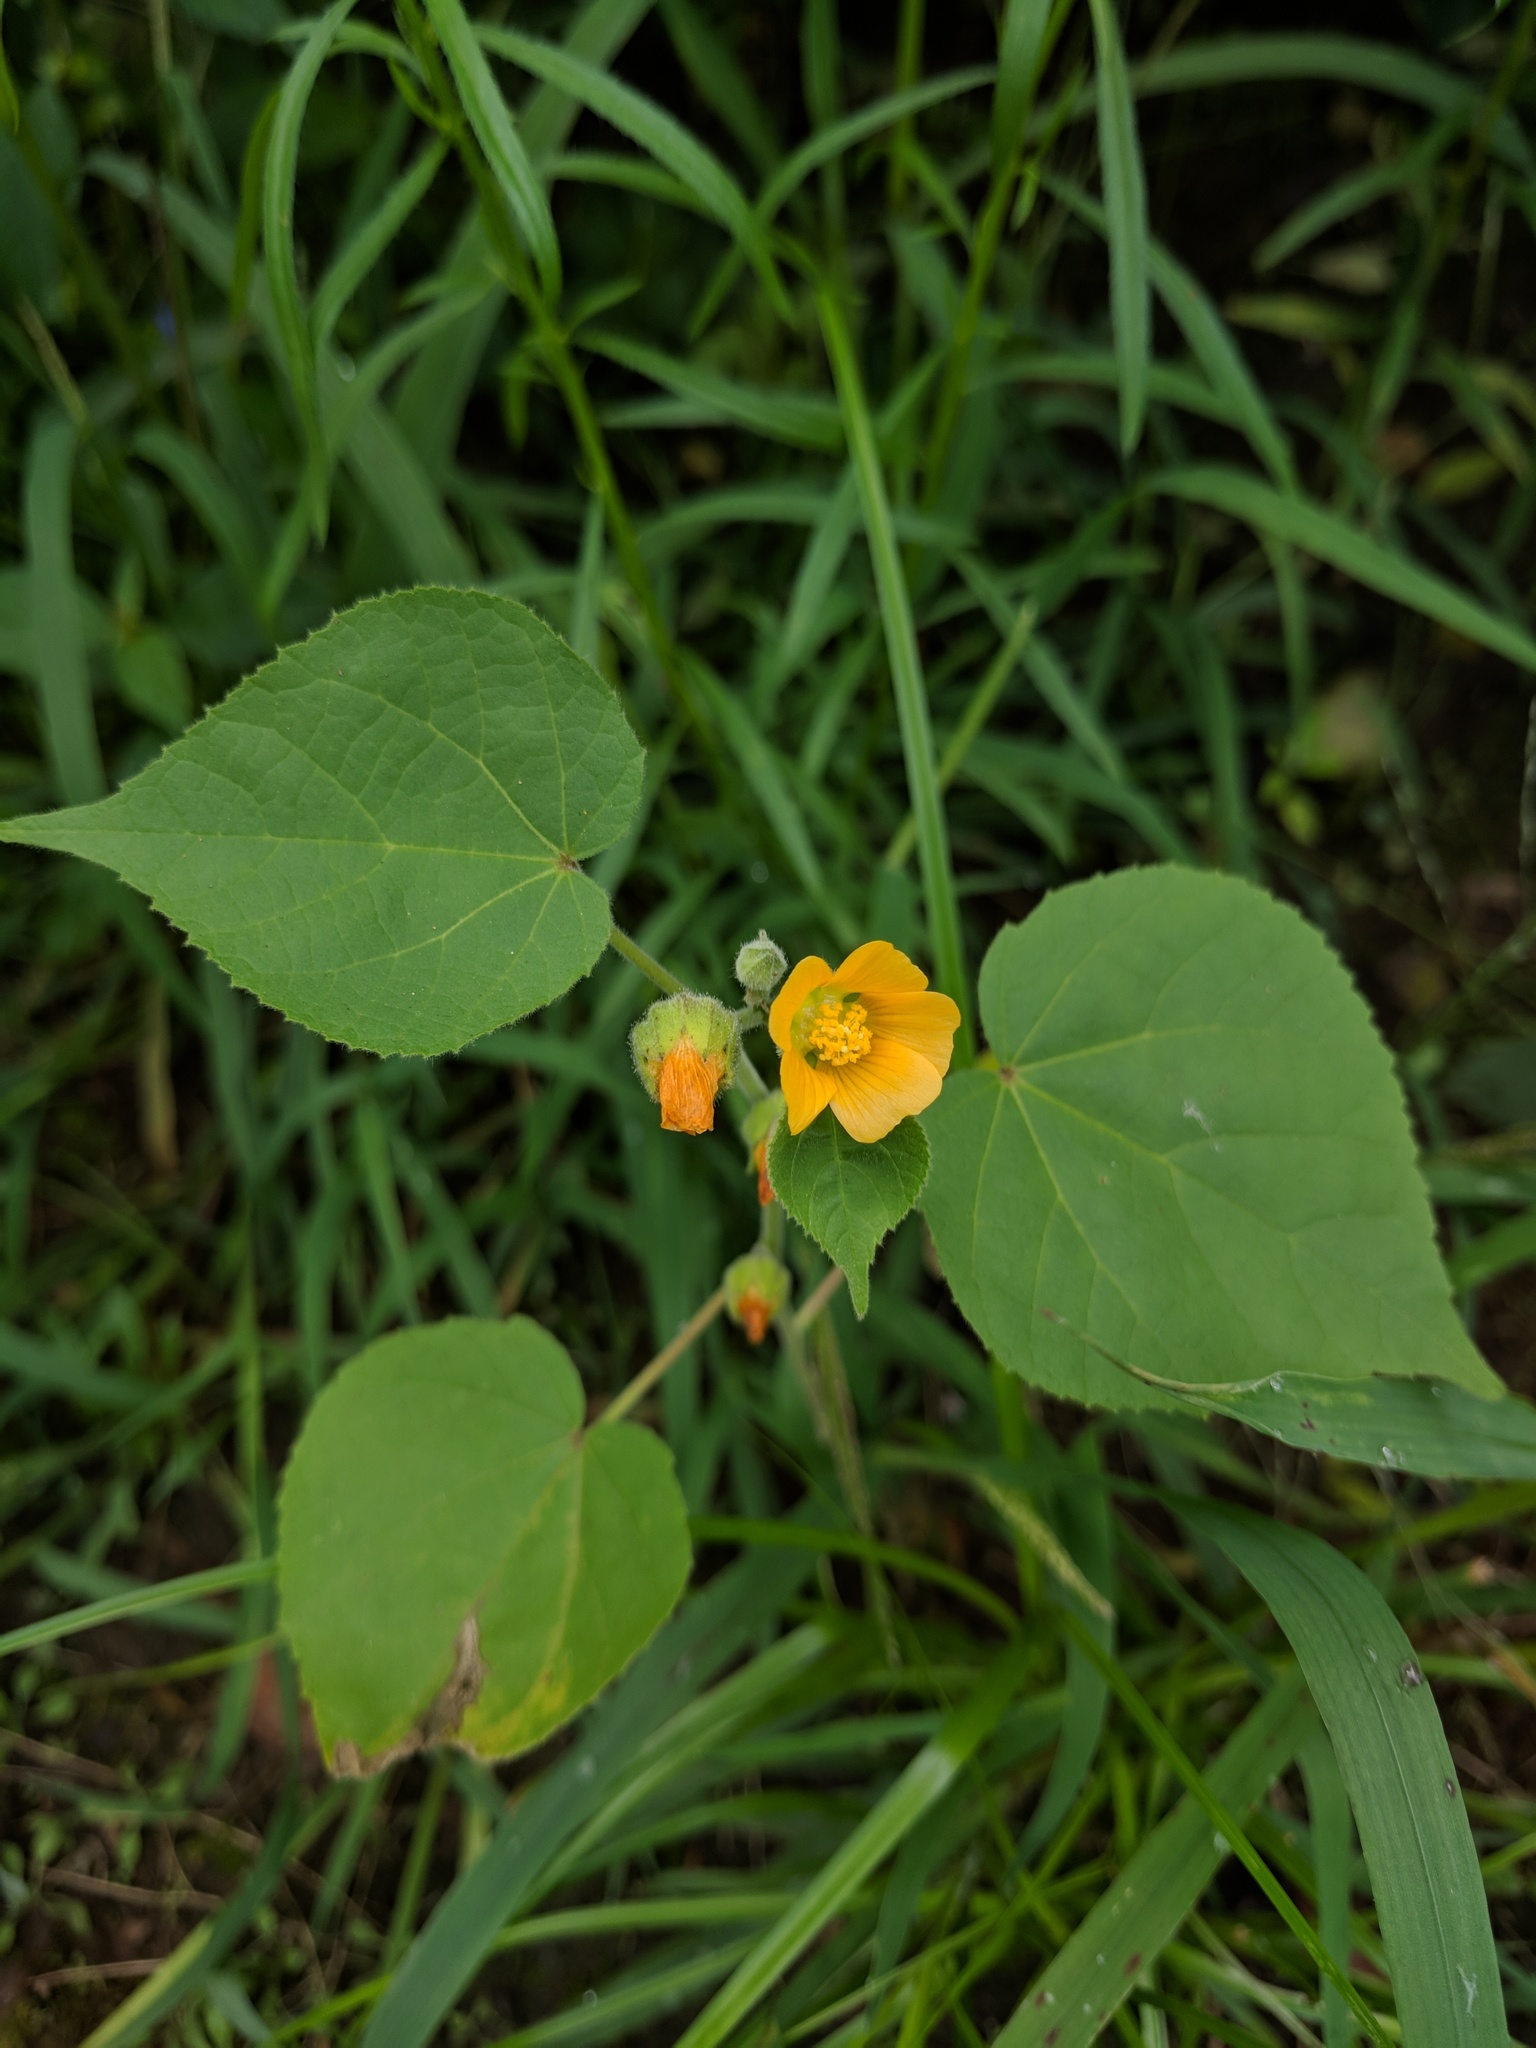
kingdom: Plantae
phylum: Tracheophyta
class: Magnoliopsida
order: Malvales
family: Malvaceae
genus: Abutilon
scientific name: Abutilon theophrasti
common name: Velvetleaf
